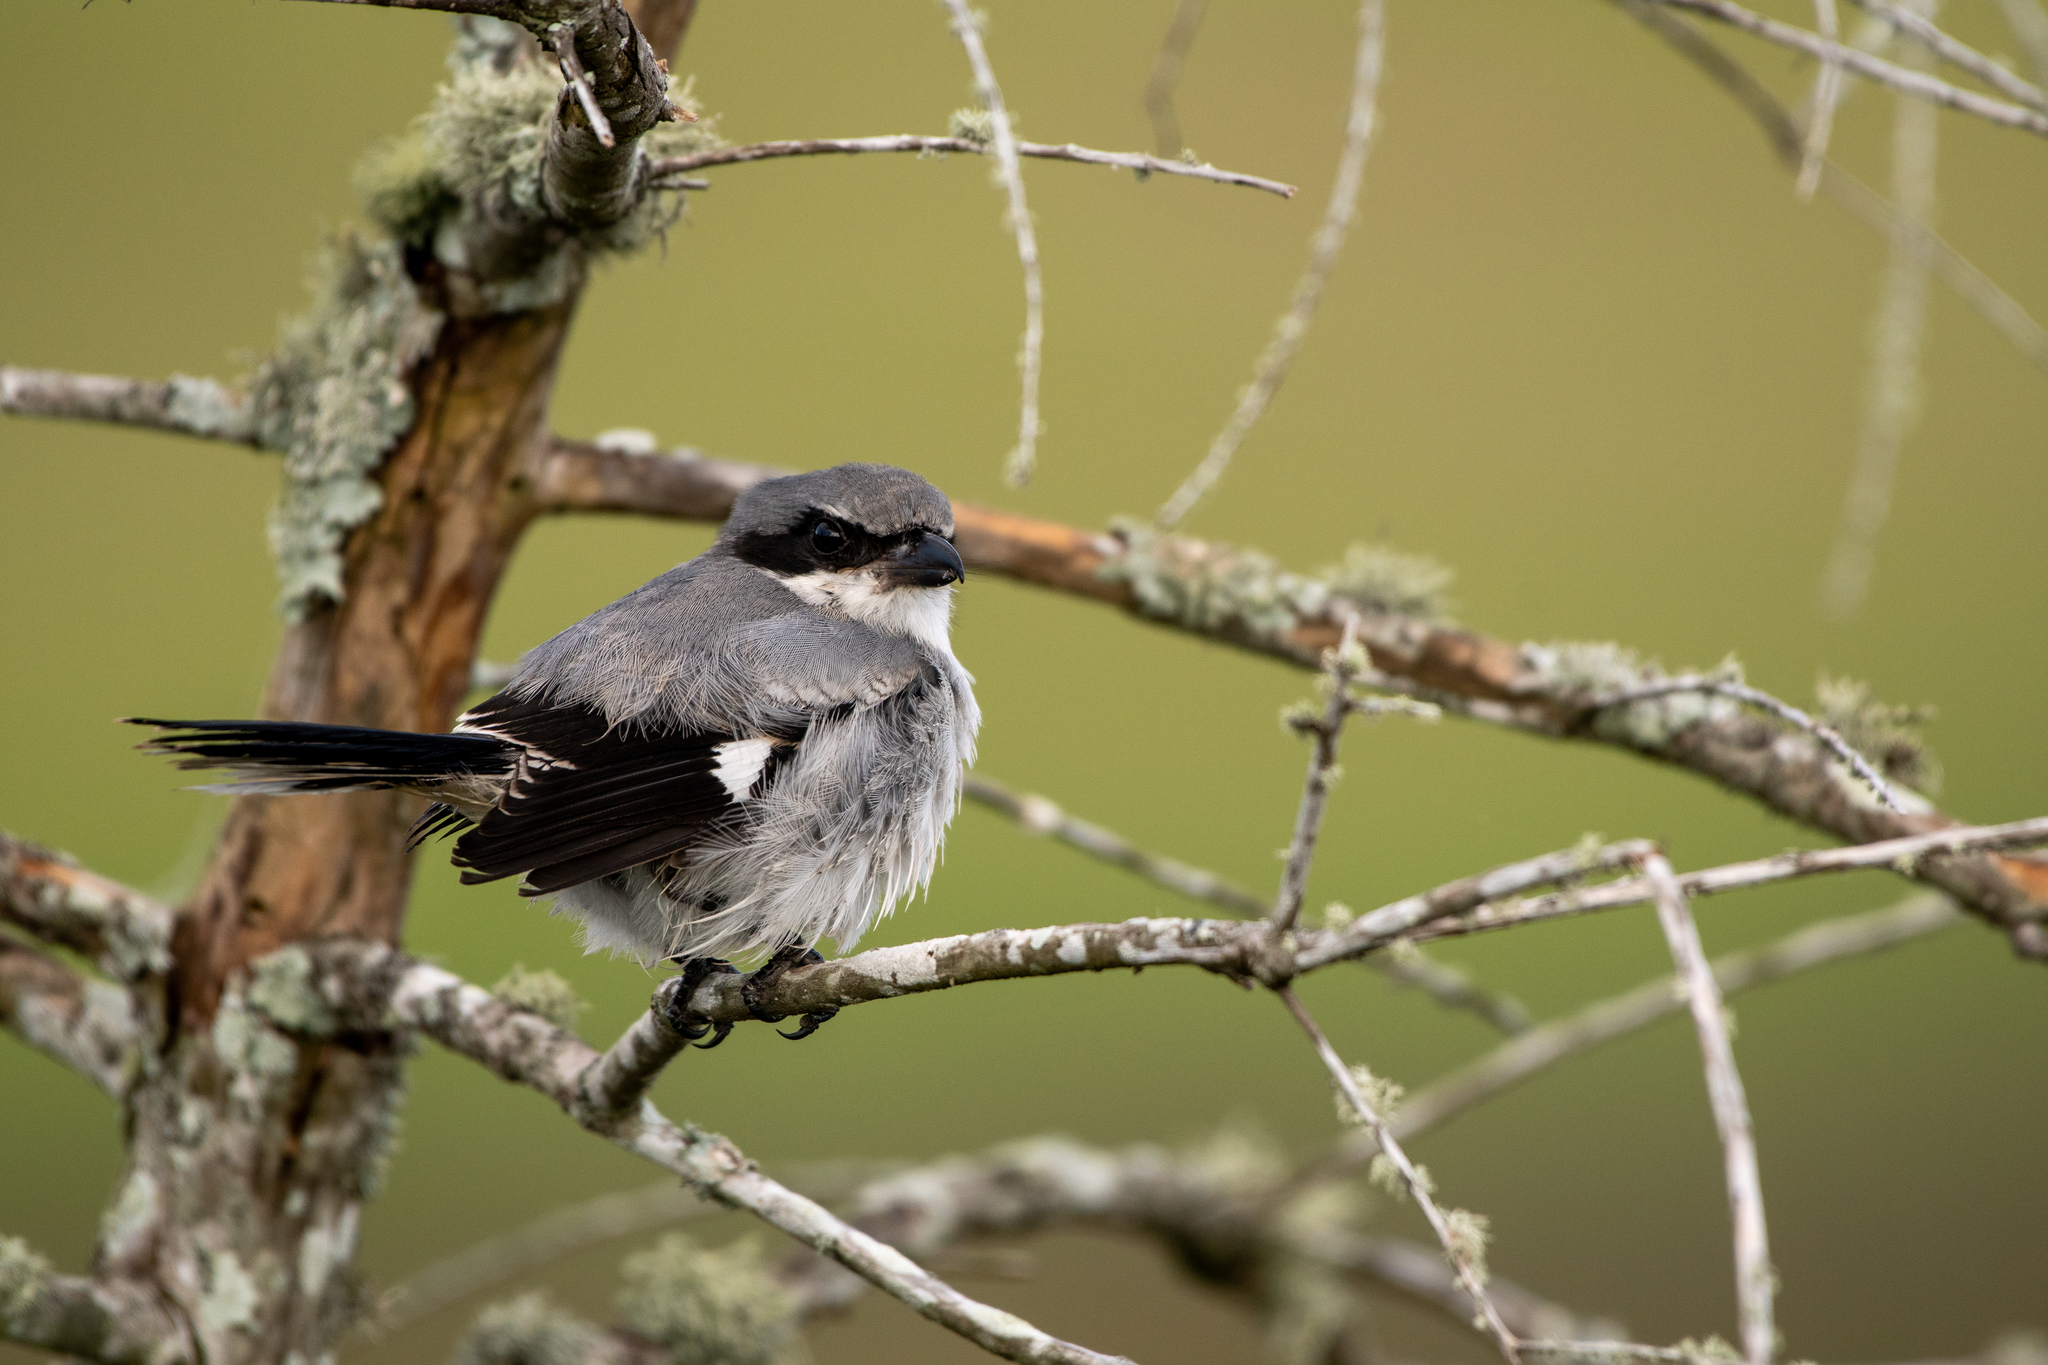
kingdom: Animalia
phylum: Chordata
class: Aves
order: Passeriformes
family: Laniidae
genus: Lanius
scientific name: Lanius ludovicianus
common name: Loggerhead shrike
